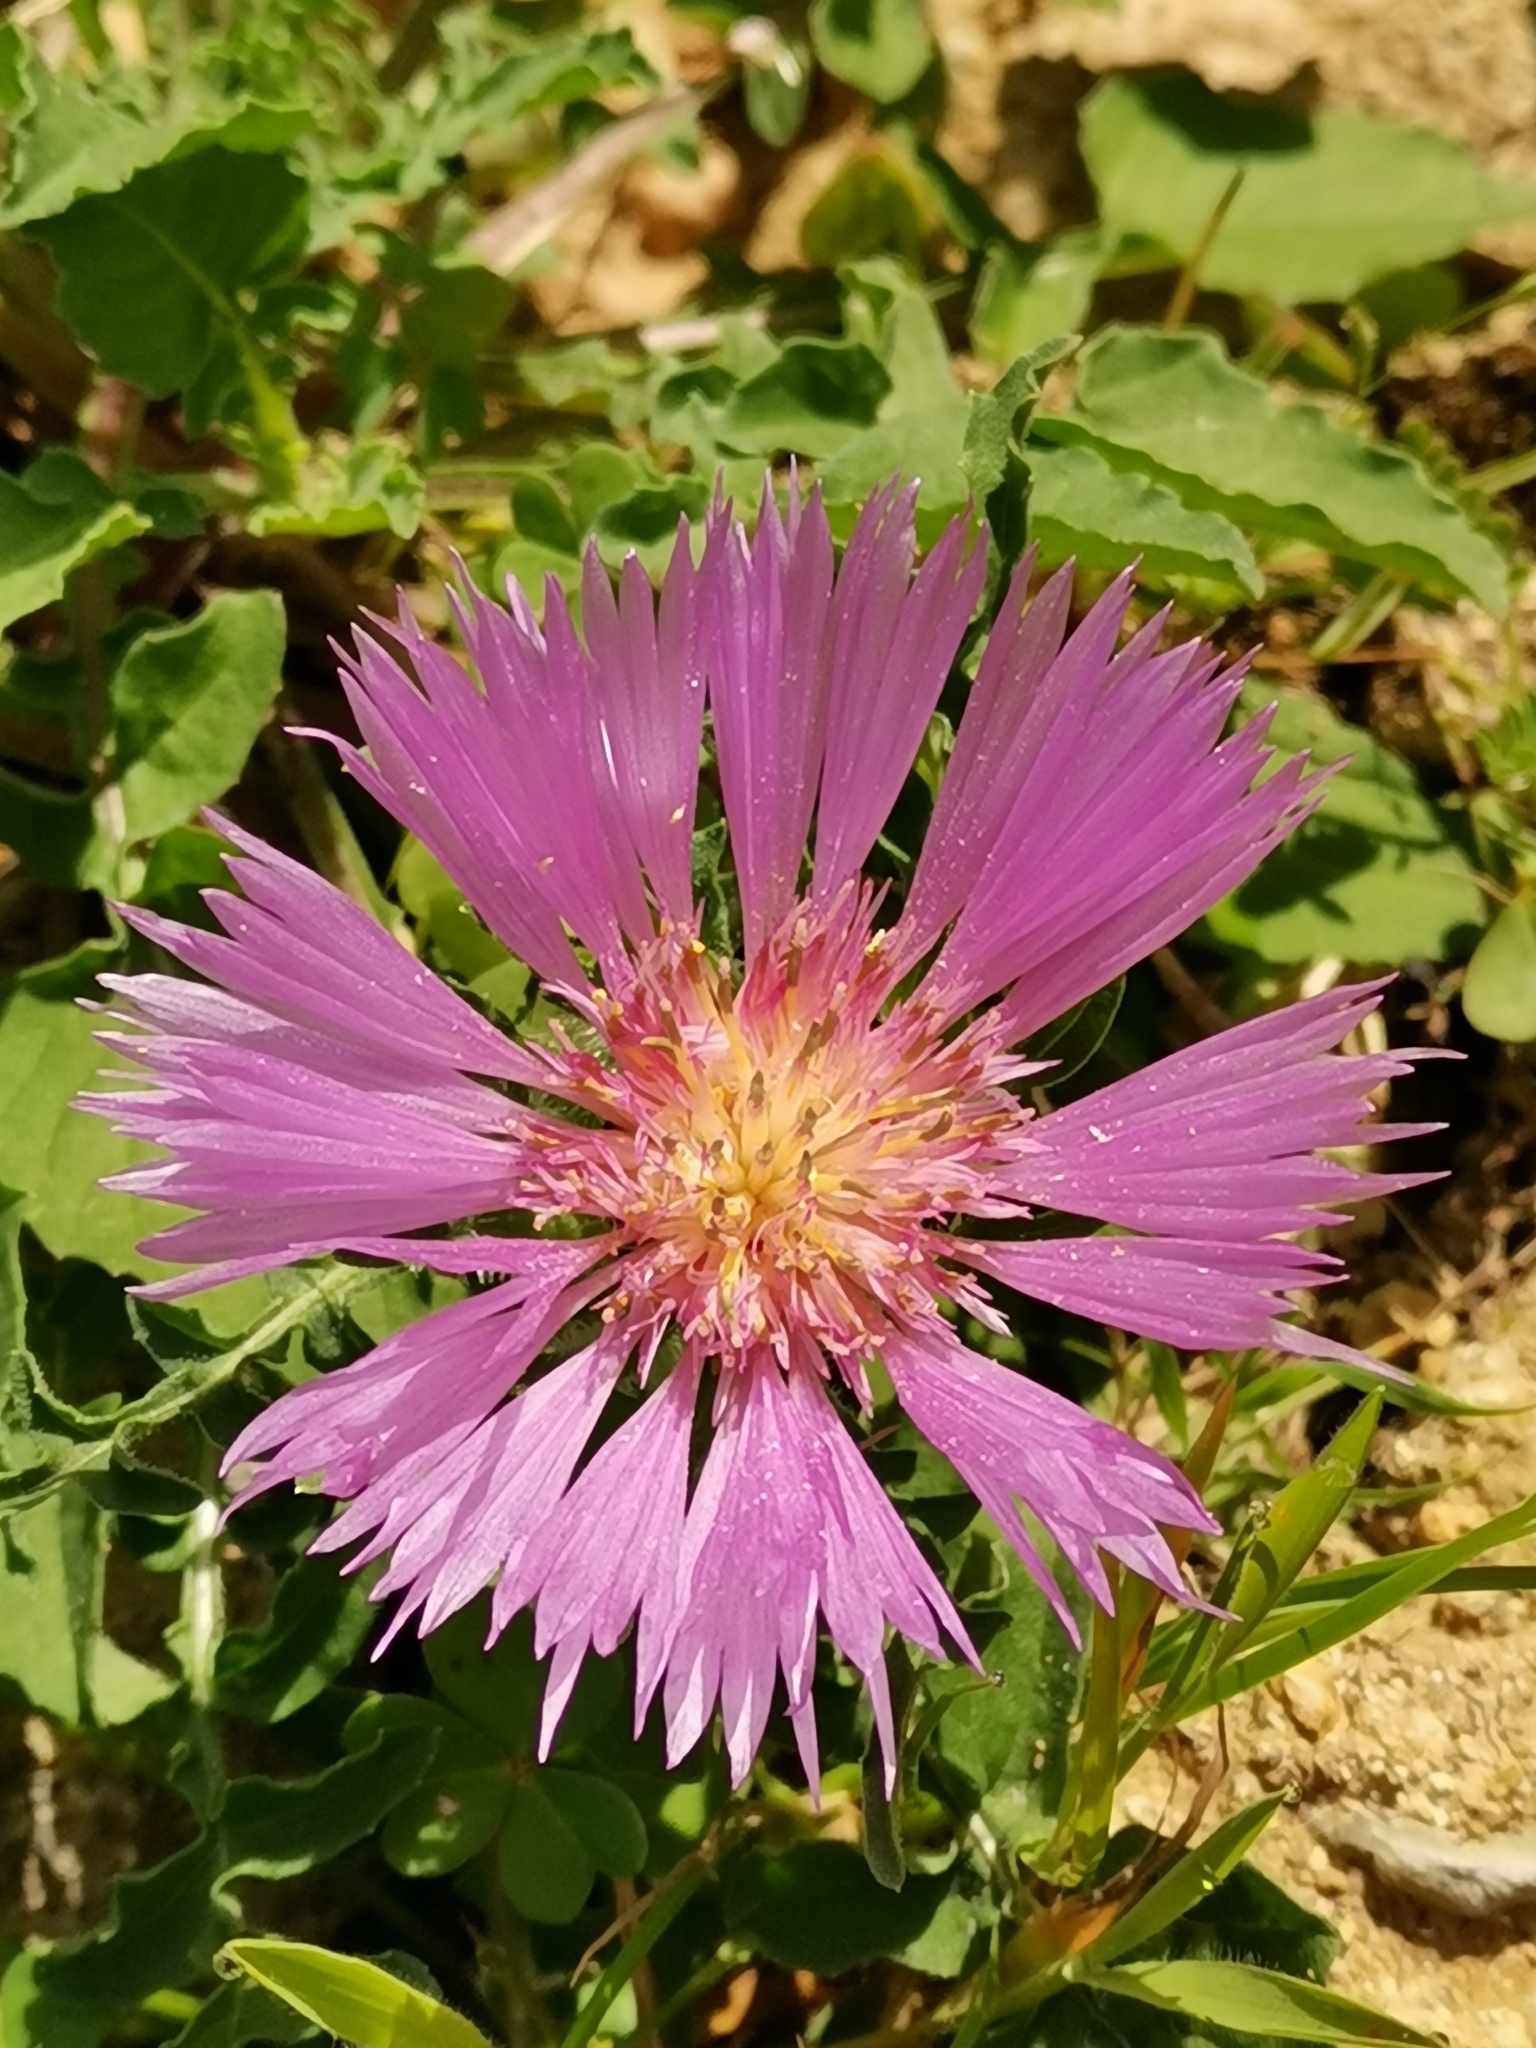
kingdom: Plantae
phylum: Tracheophyta
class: Magnoliopsida
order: Asterales
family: Asteraceae
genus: Centaurea
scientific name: Centaurea pullata
